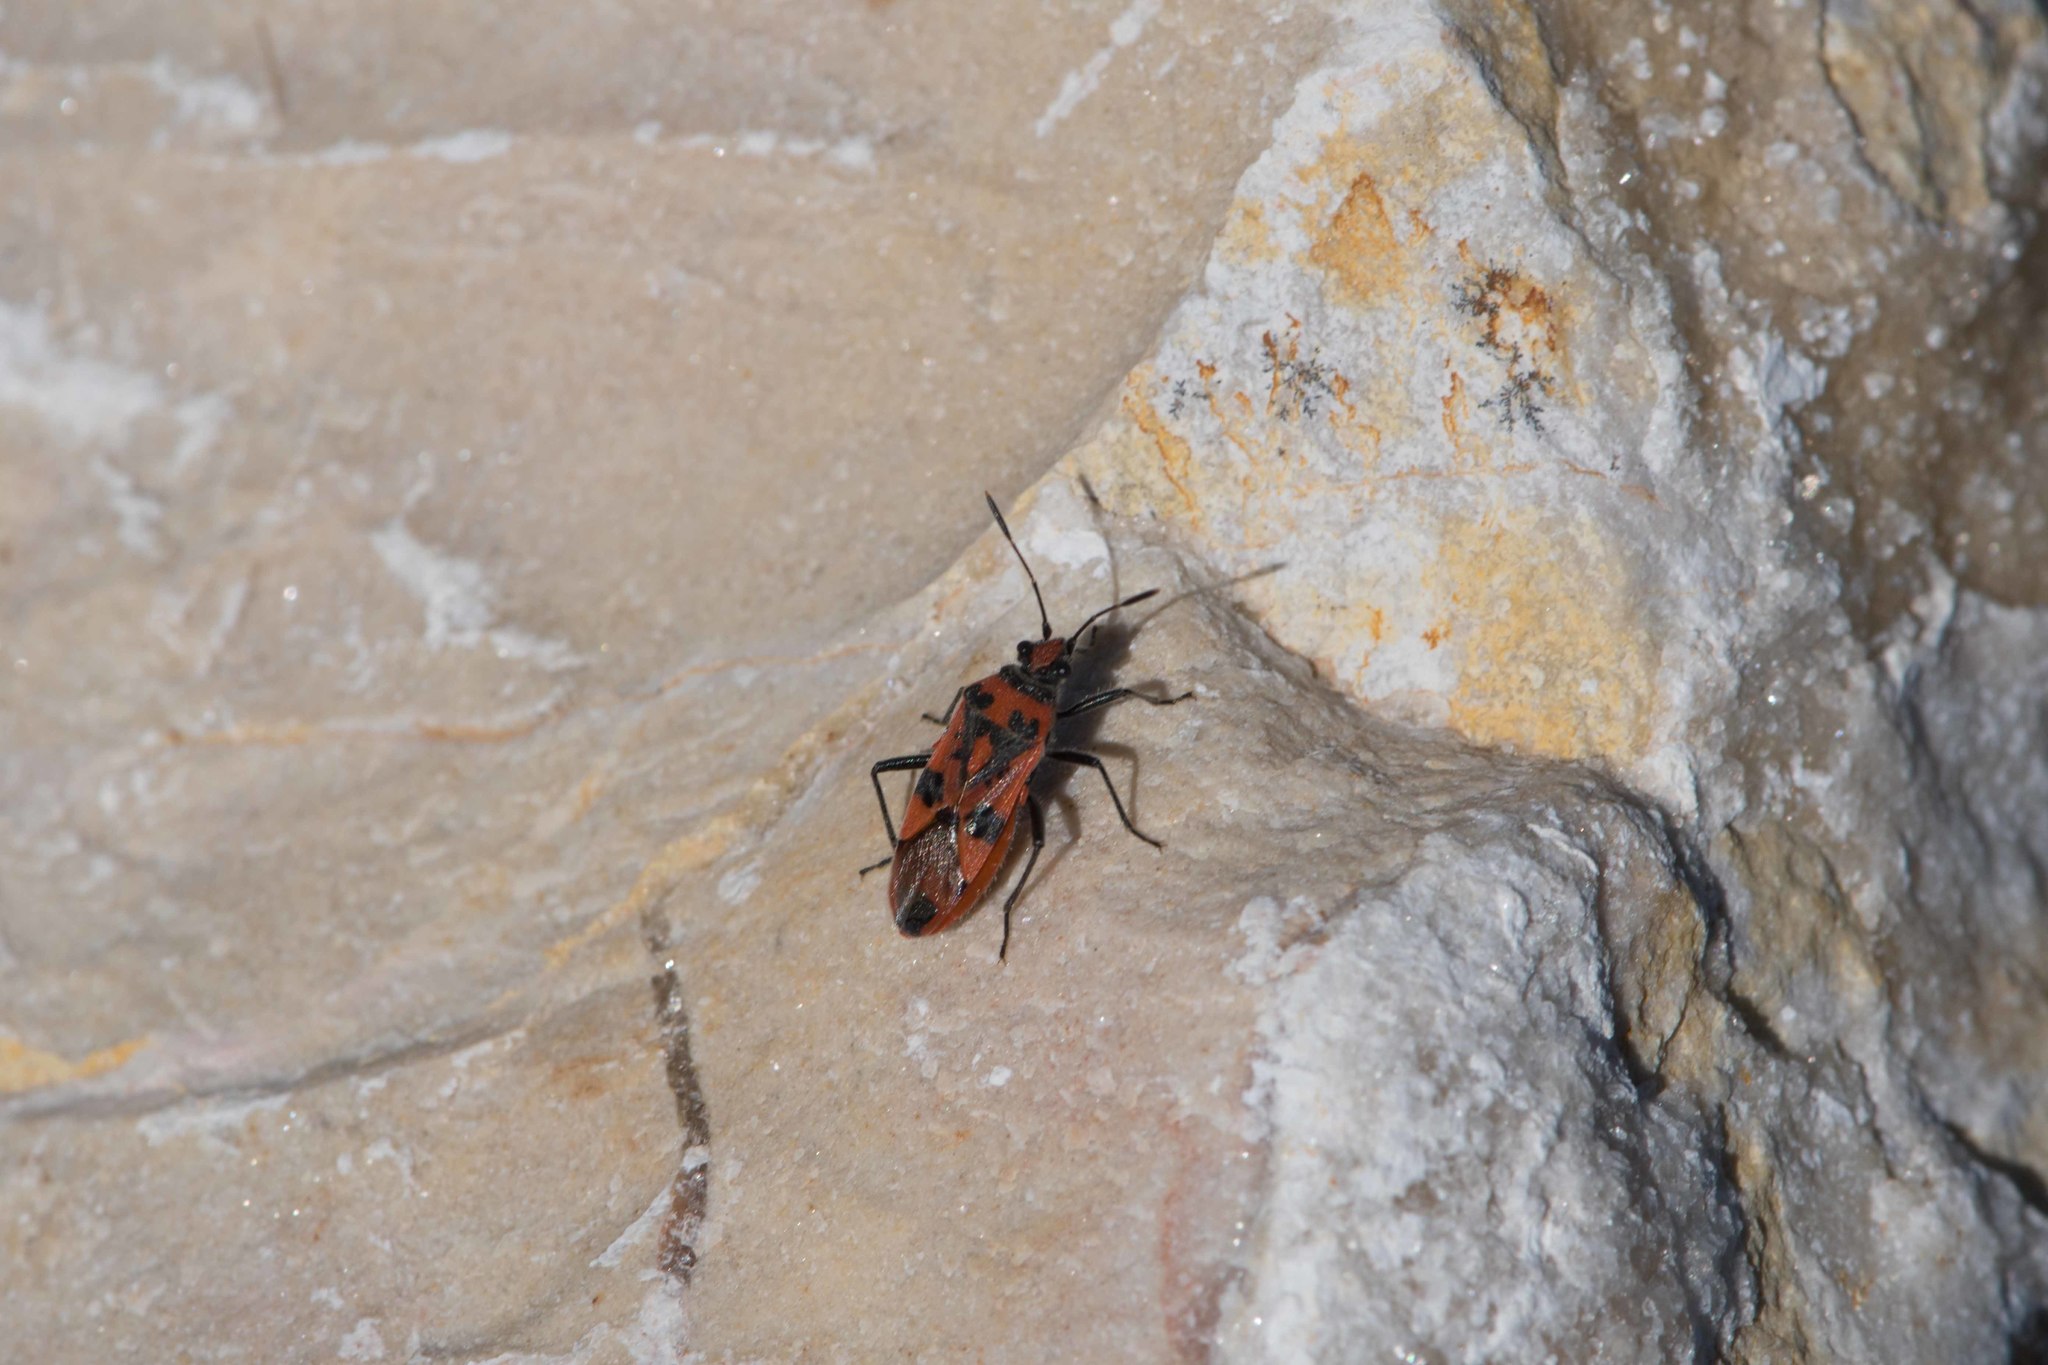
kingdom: Animalia
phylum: Arthropoda
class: Insecta
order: Hemiptera
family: Rhopalidae
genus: Corizus
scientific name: Corizus hyoscyami
